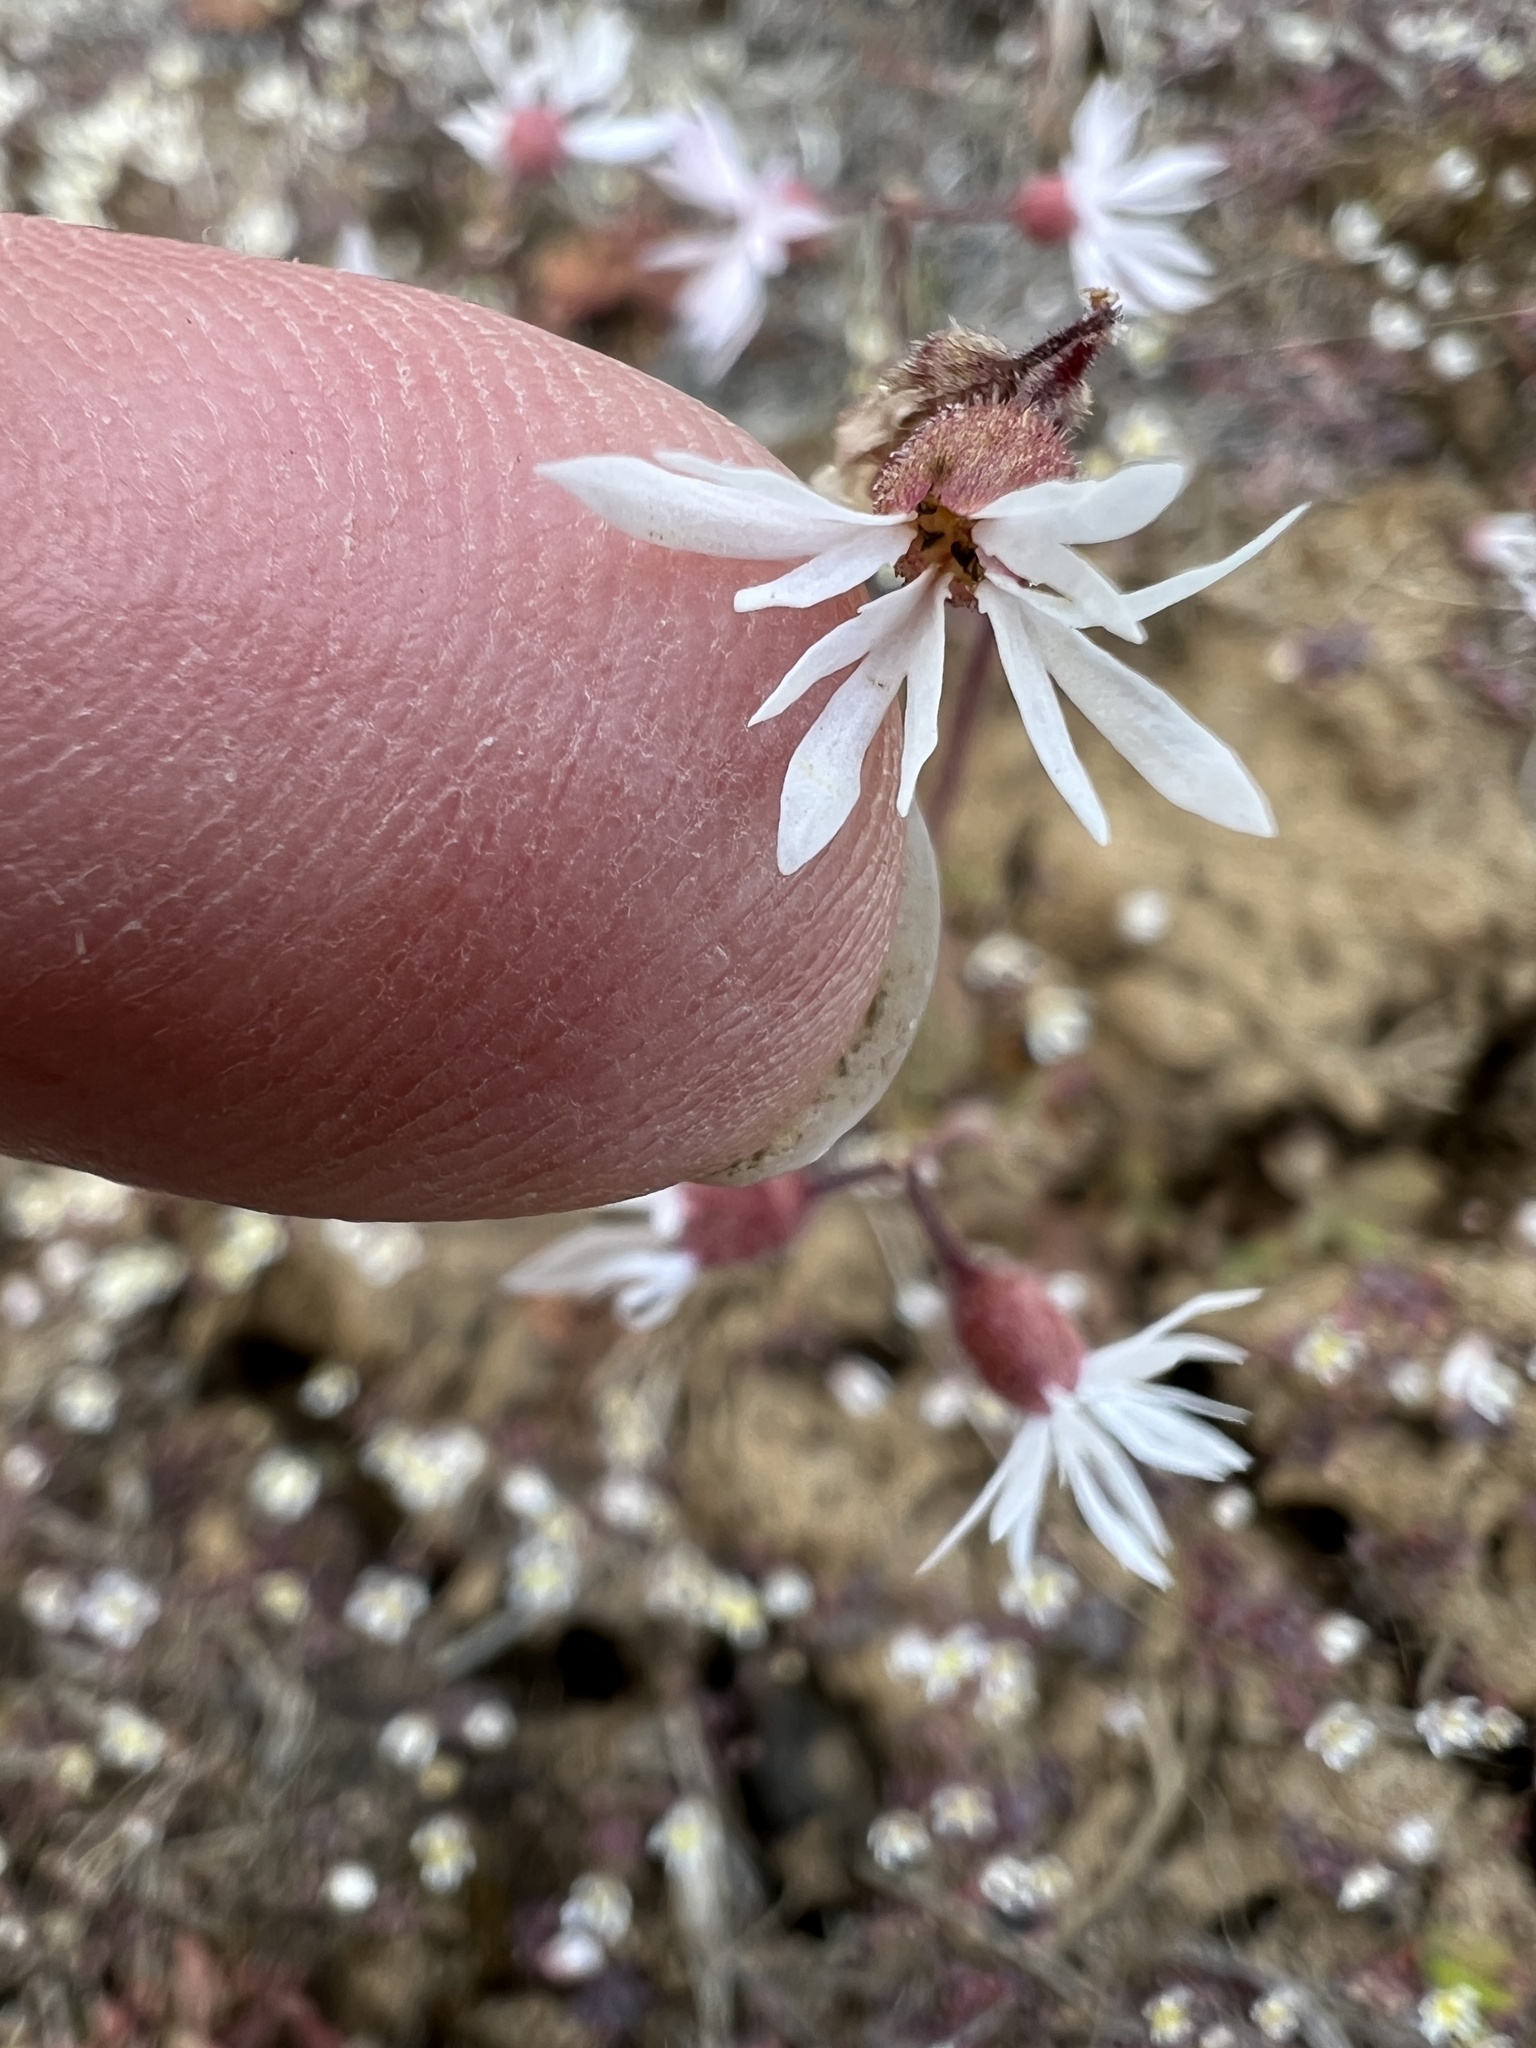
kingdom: Plantae
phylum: Tracheophyta
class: Magnoliopsida
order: Saxifragales
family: Saxifragaceae
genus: Lithophragma
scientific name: Lithophragma glabrum
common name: Bulbous prairie-star
